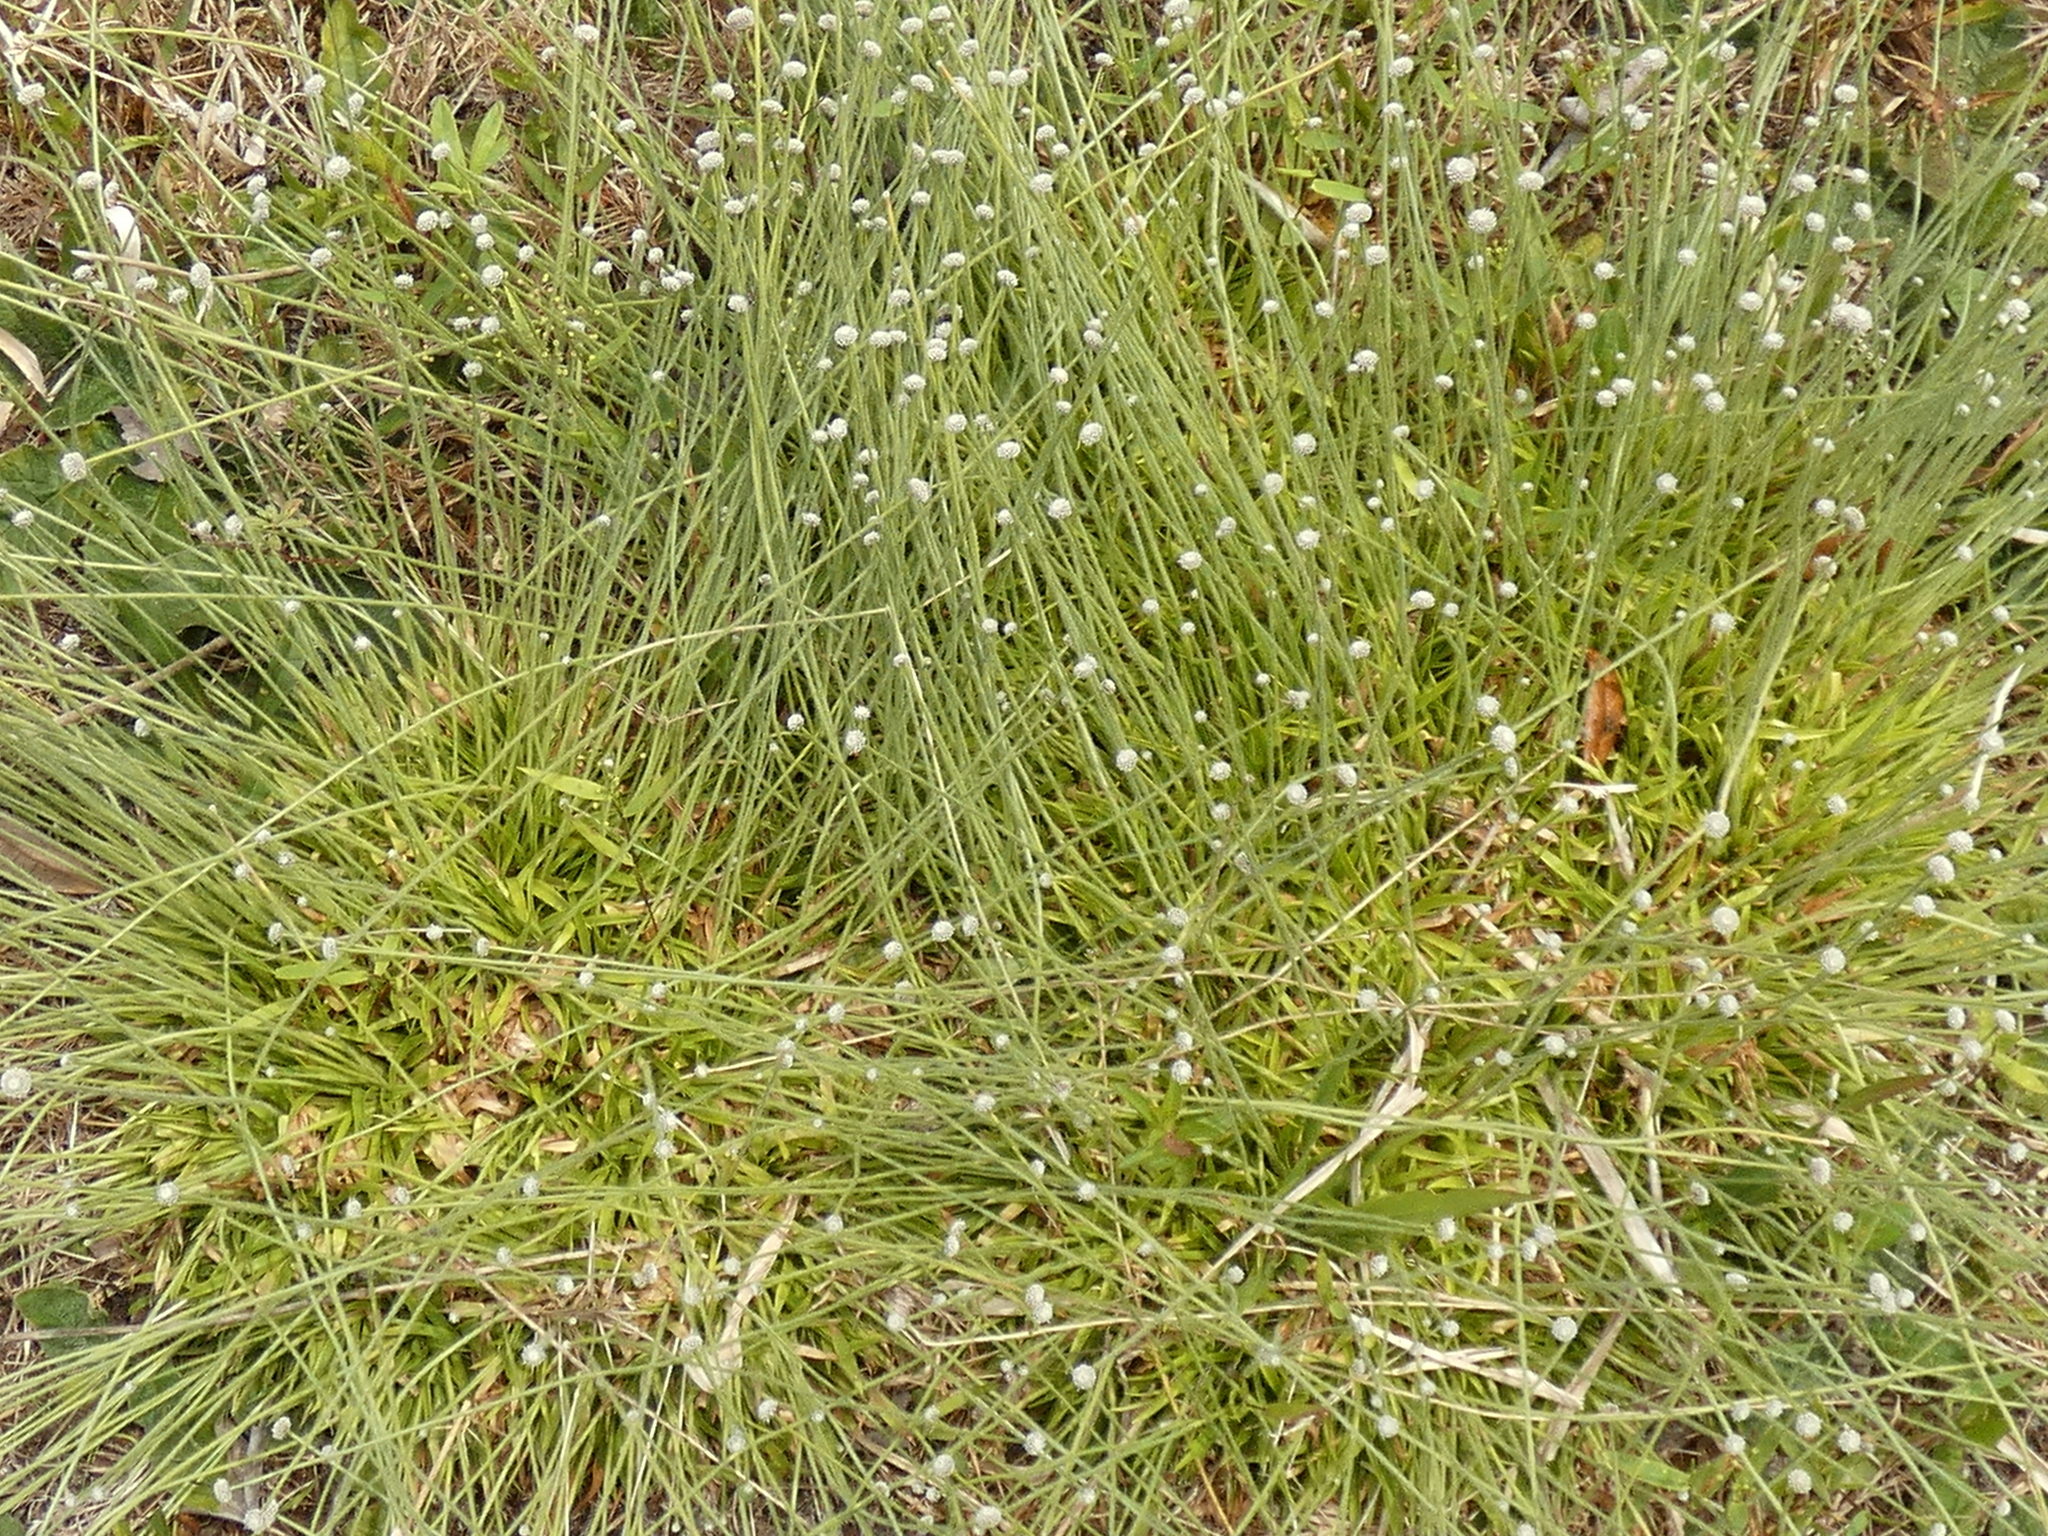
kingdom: Plantae
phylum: Tracheophyta
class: Liliopsida
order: Poales
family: Eriocaulaceae
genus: Paepalanthus
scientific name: Paepalanthus anceps
